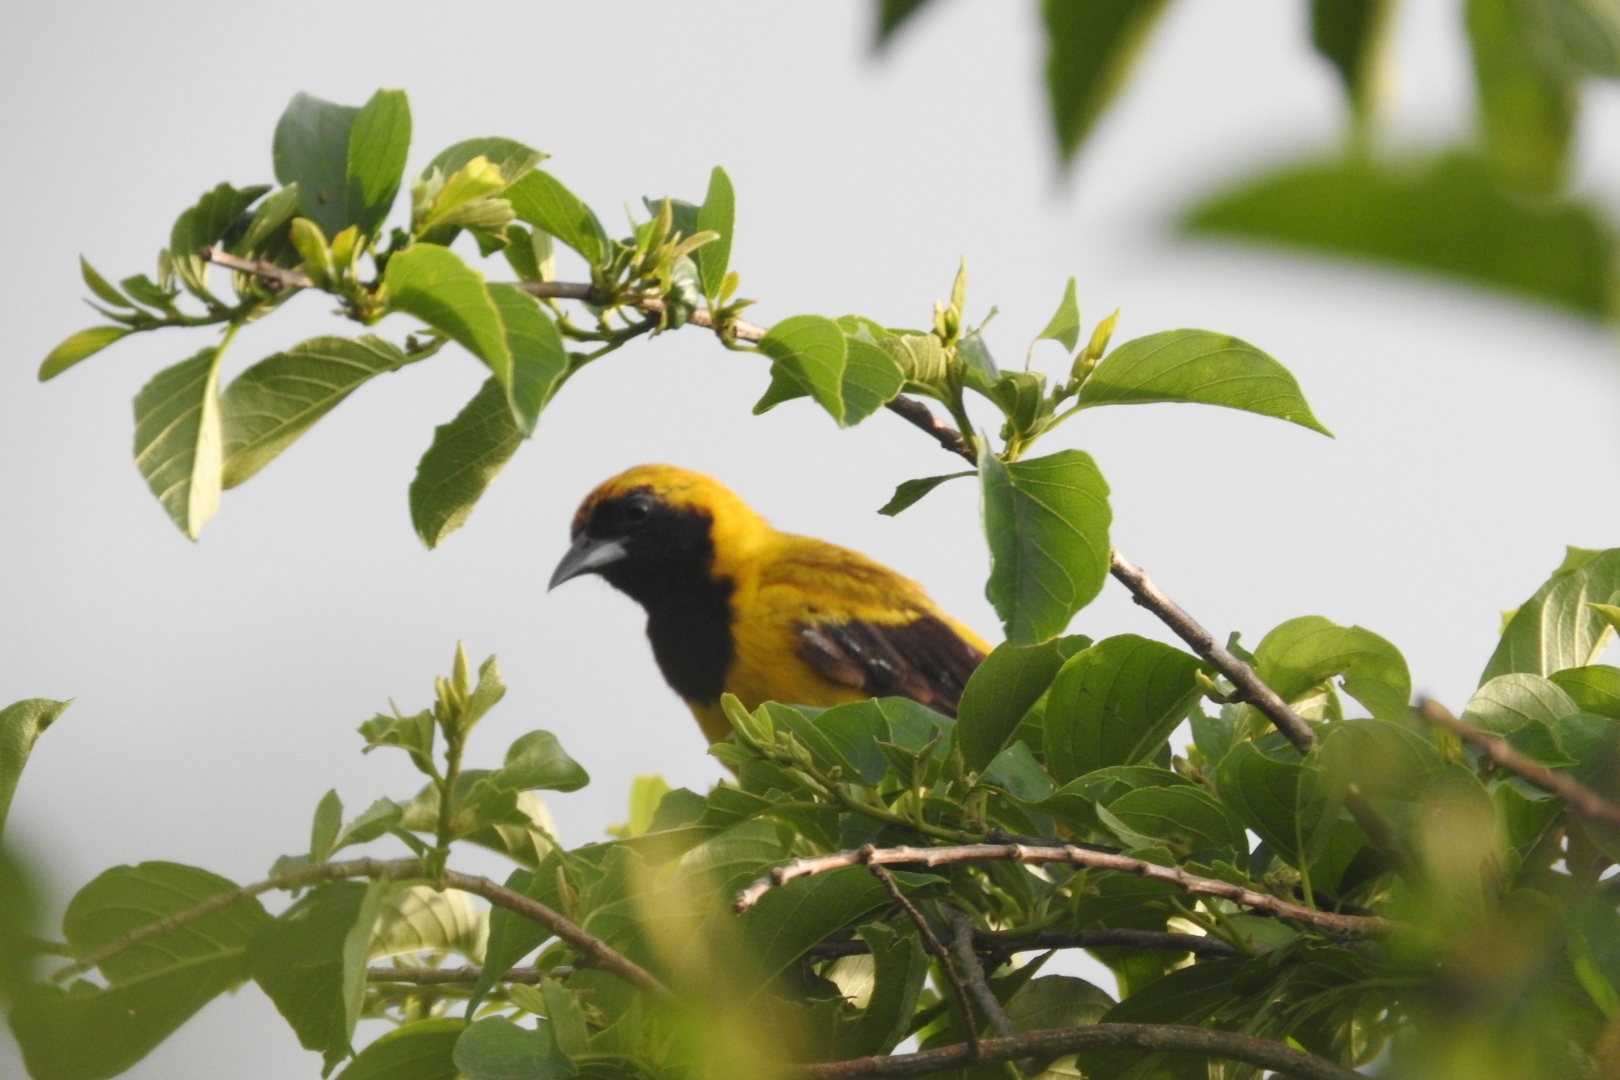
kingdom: Animalia
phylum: Chordata
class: Aves
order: Passeriformes
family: Icteridae
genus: Icterus
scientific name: Icterus prosthemelas
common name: Black-cowled oriole
